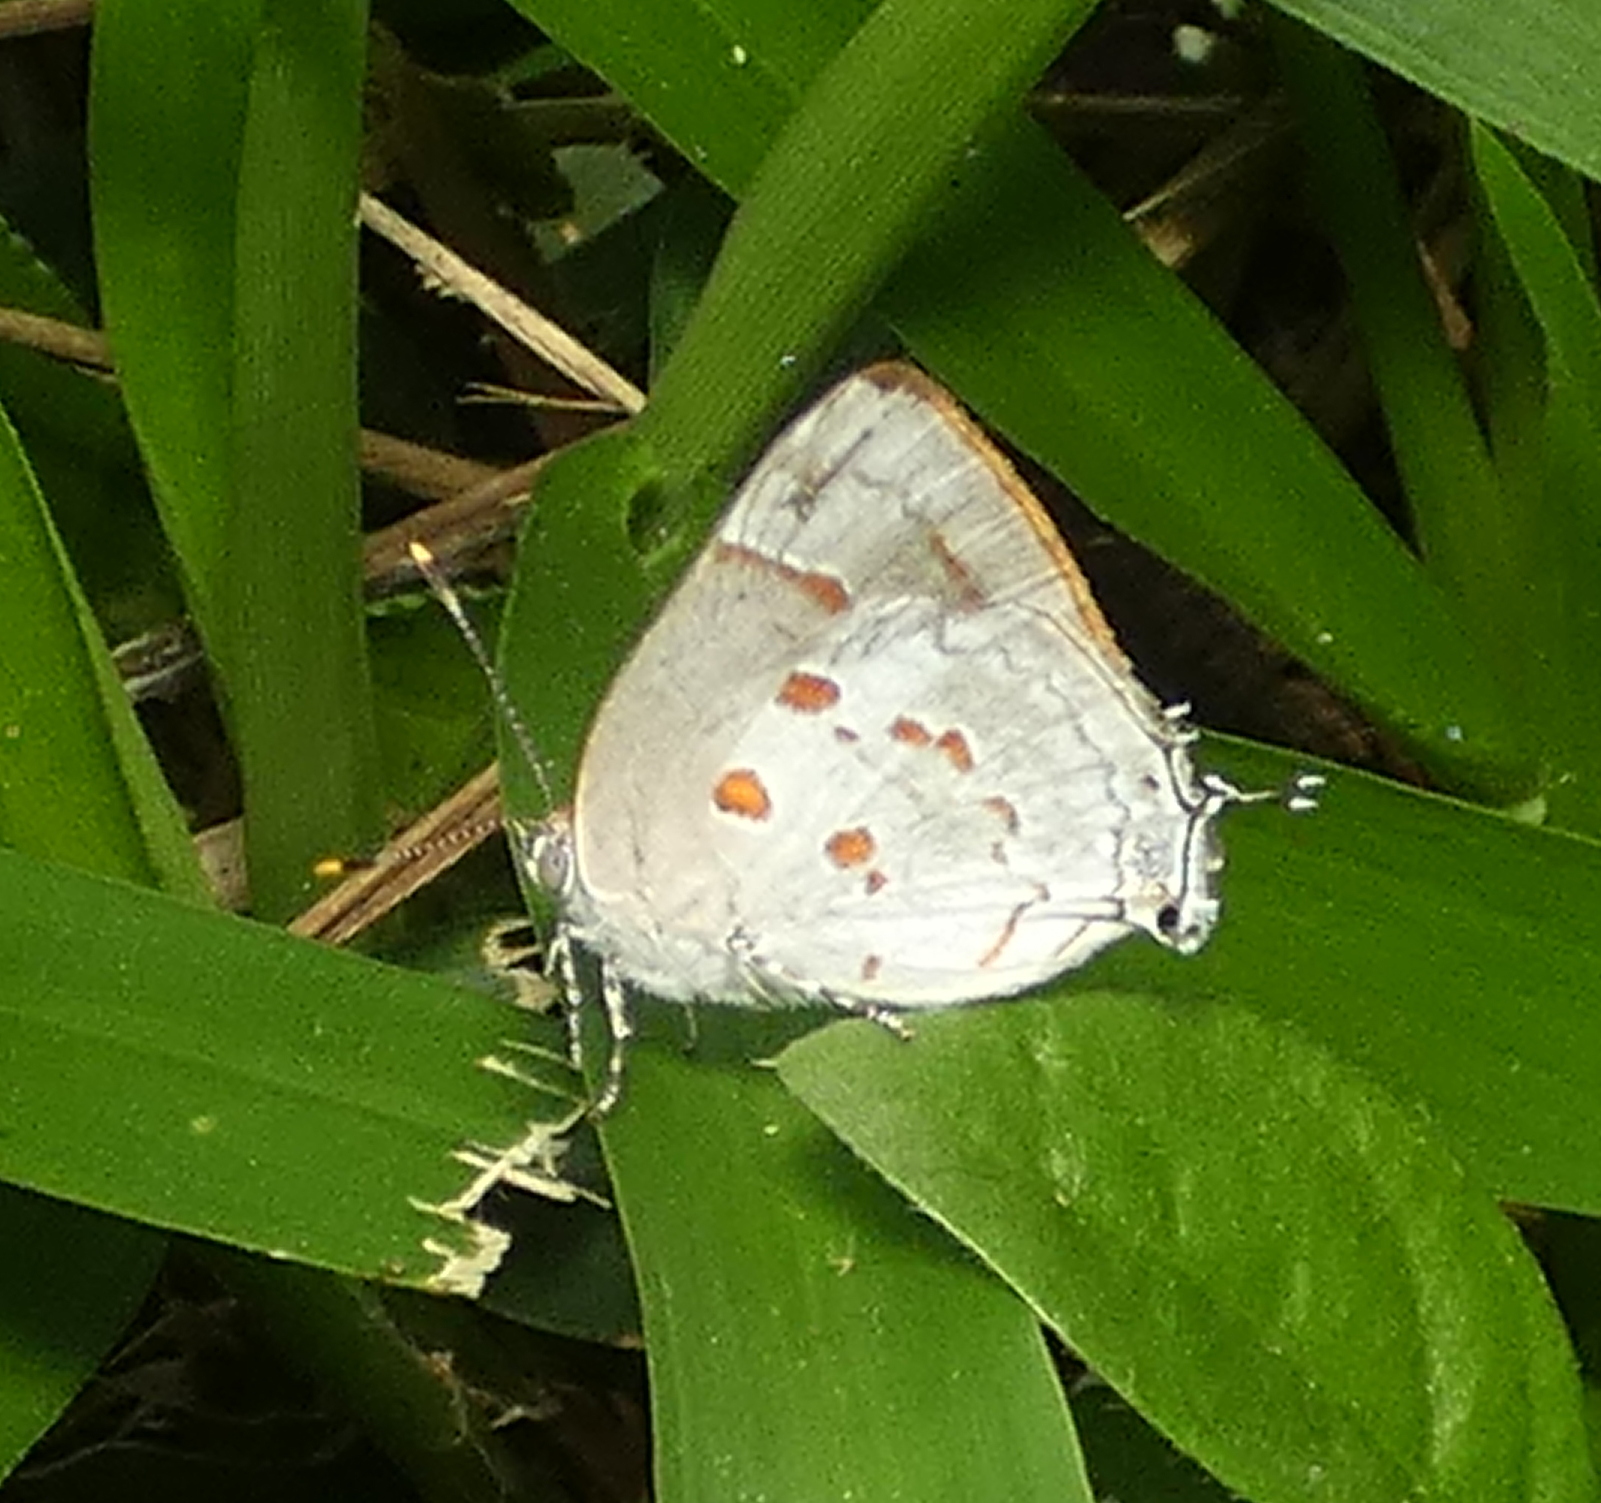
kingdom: Animalia
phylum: Arthropoda
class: Insecta
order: Lepidoptera
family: Lycaenidae
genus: Tmolus
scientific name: Tmolus echion
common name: Red-spotted hairstreak
